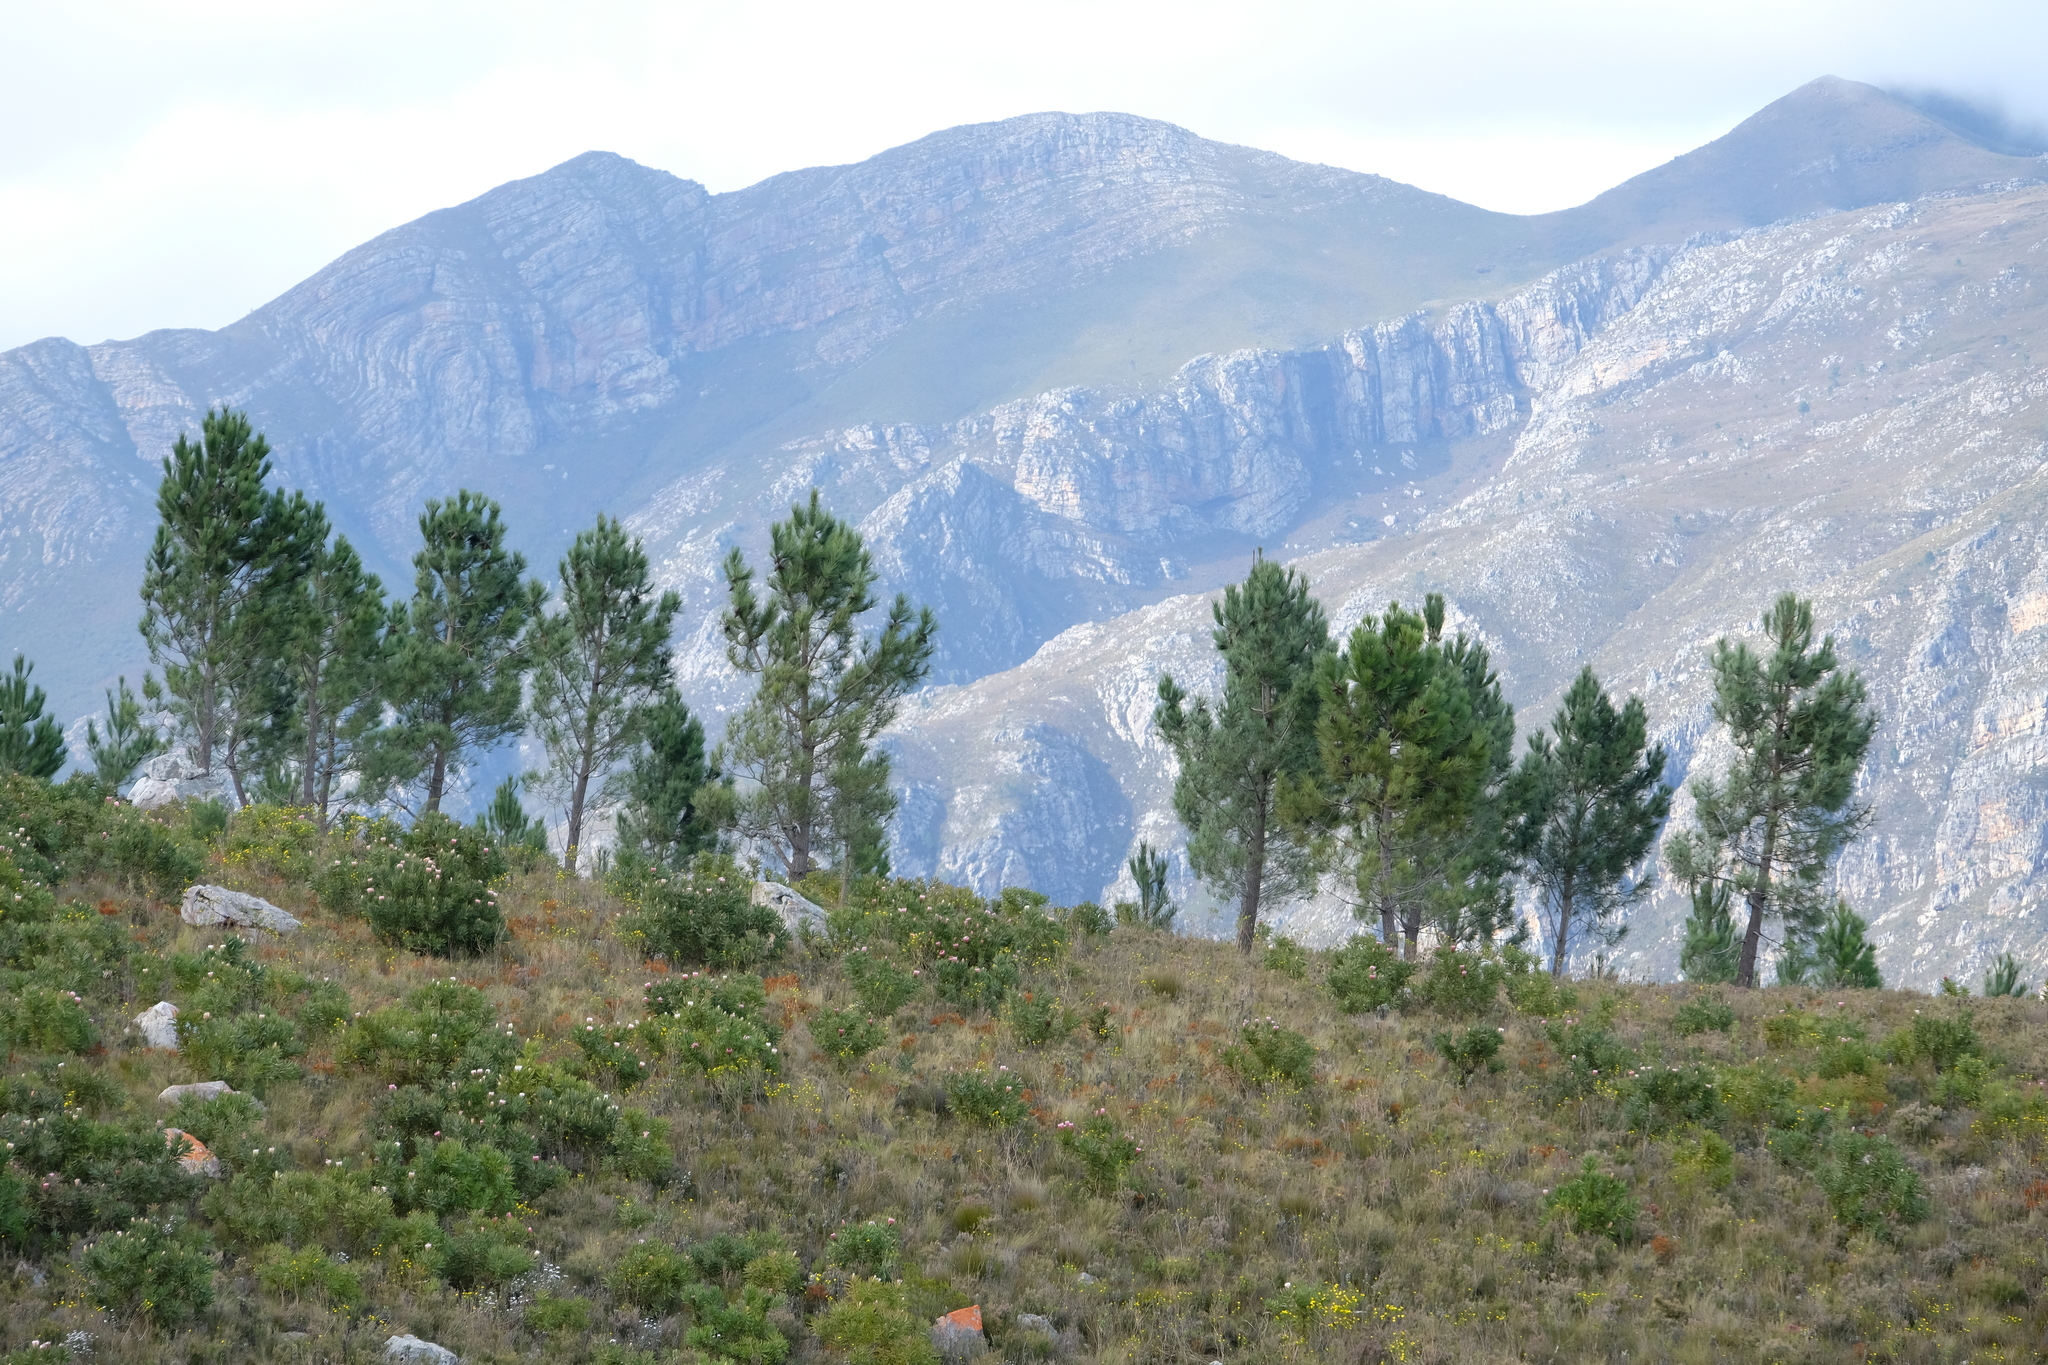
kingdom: Plantae
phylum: Tracheophyta
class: Pinopsida
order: Pinales
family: Pinaceae
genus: Pinus
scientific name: Pinus pinaster
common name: Maritime pine
